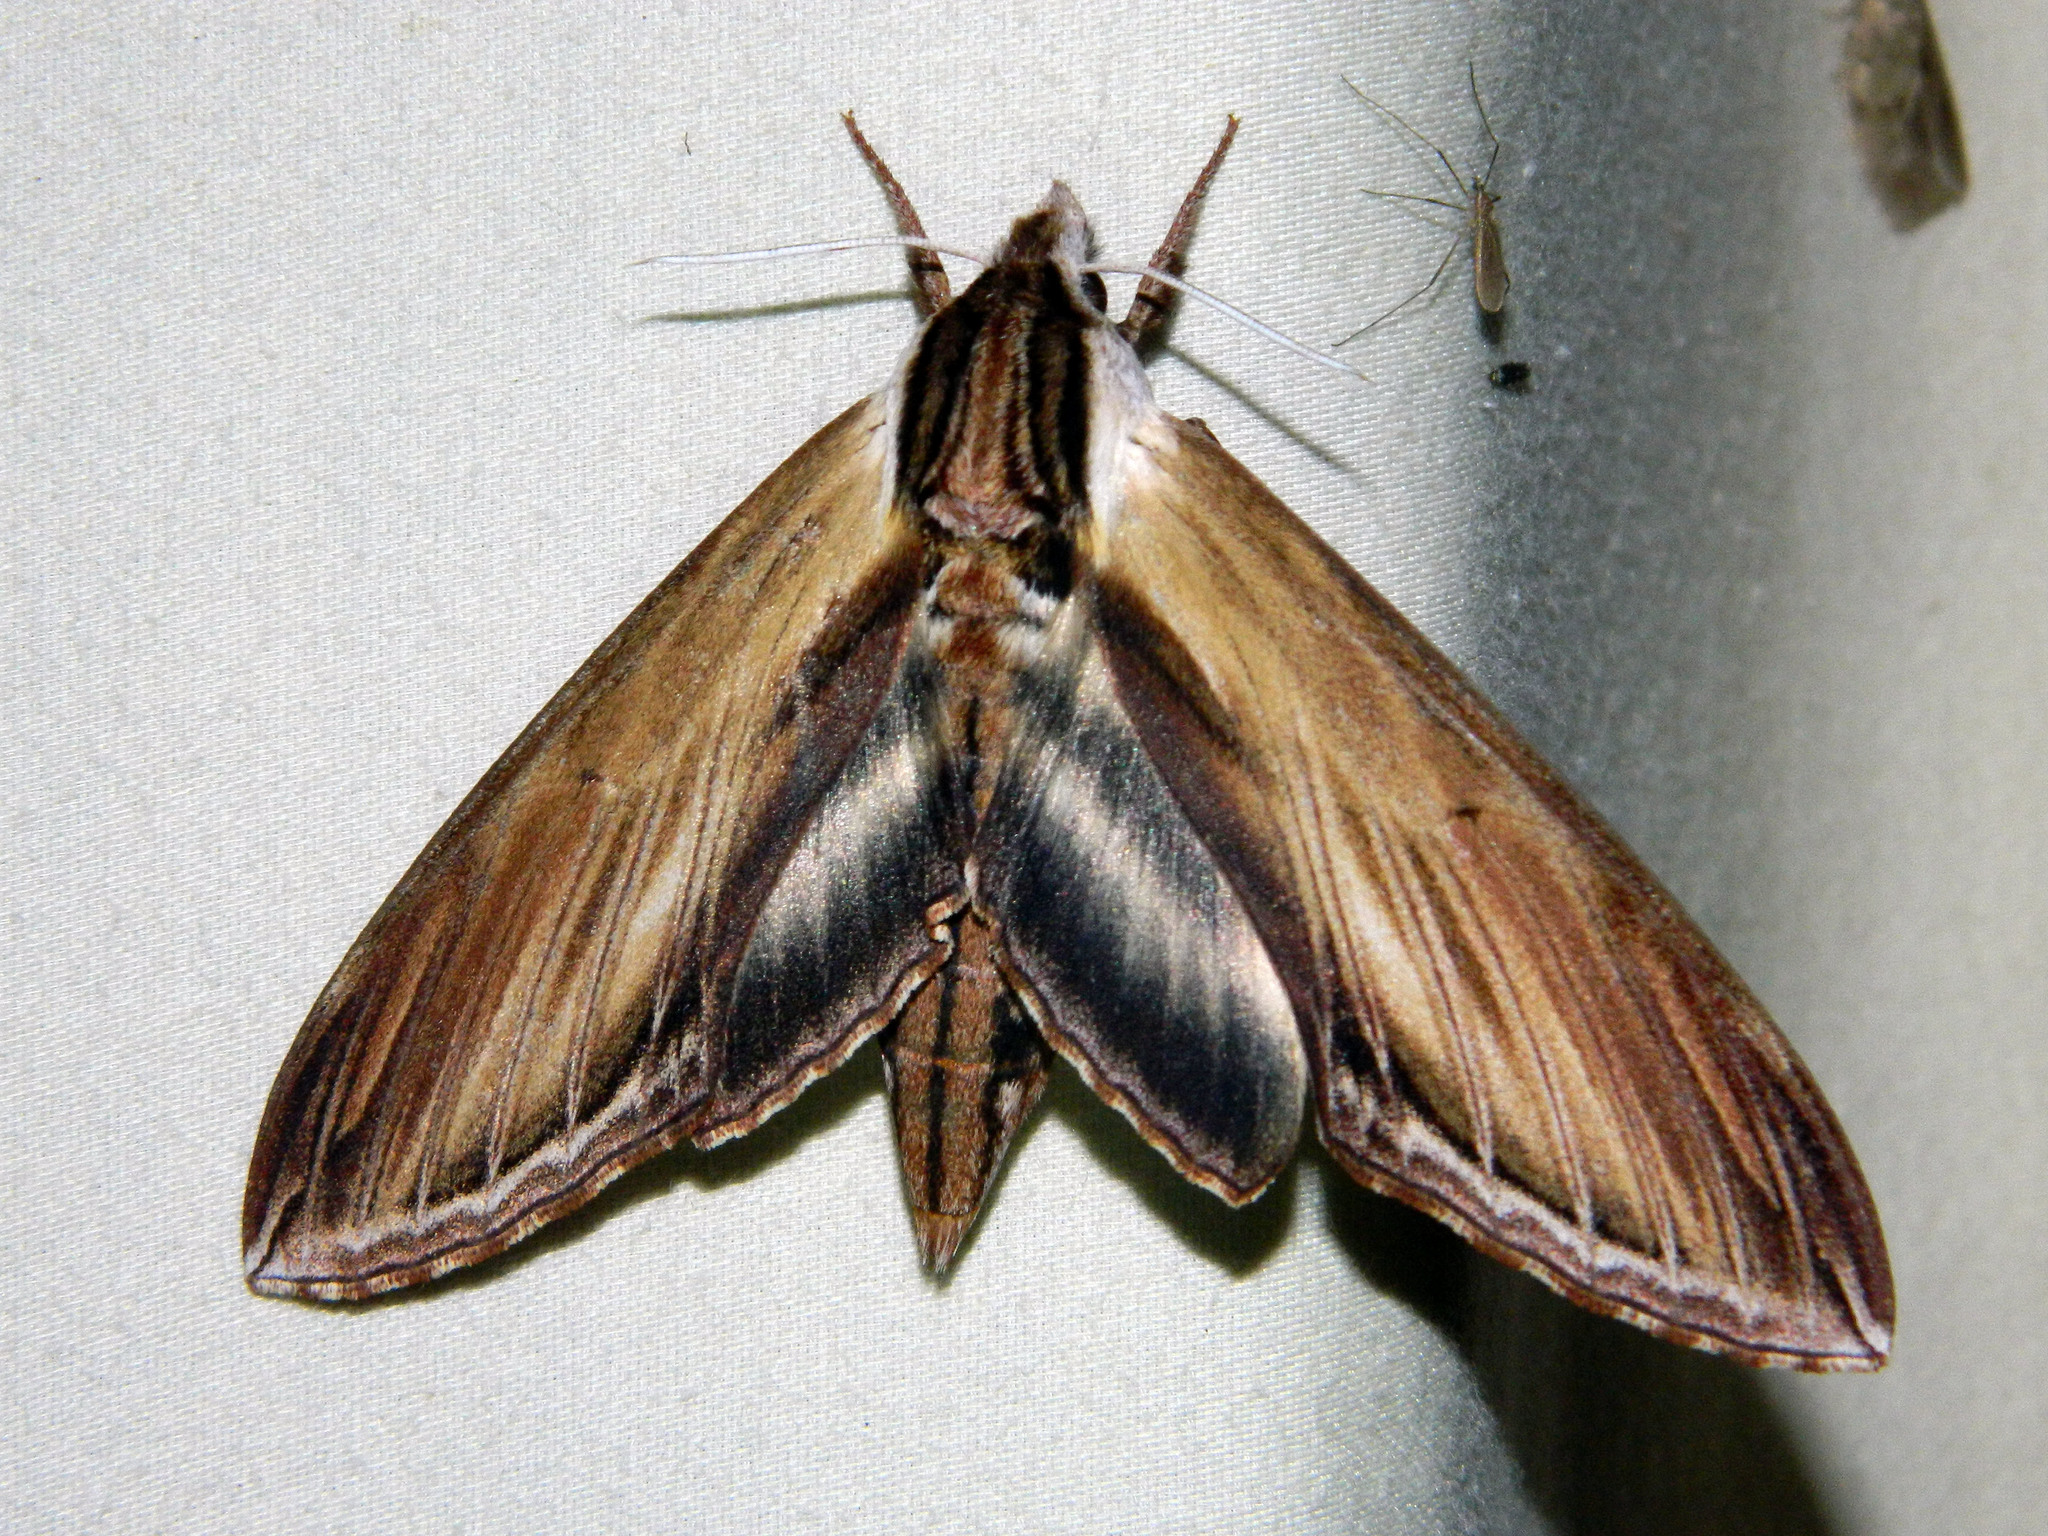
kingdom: Animalia
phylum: Arthropoda
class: Insecta
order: Lepidoptera
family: Sphingidae
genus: Sphinx
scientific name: Sphinx kalmiae
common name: Laurel sphinx
